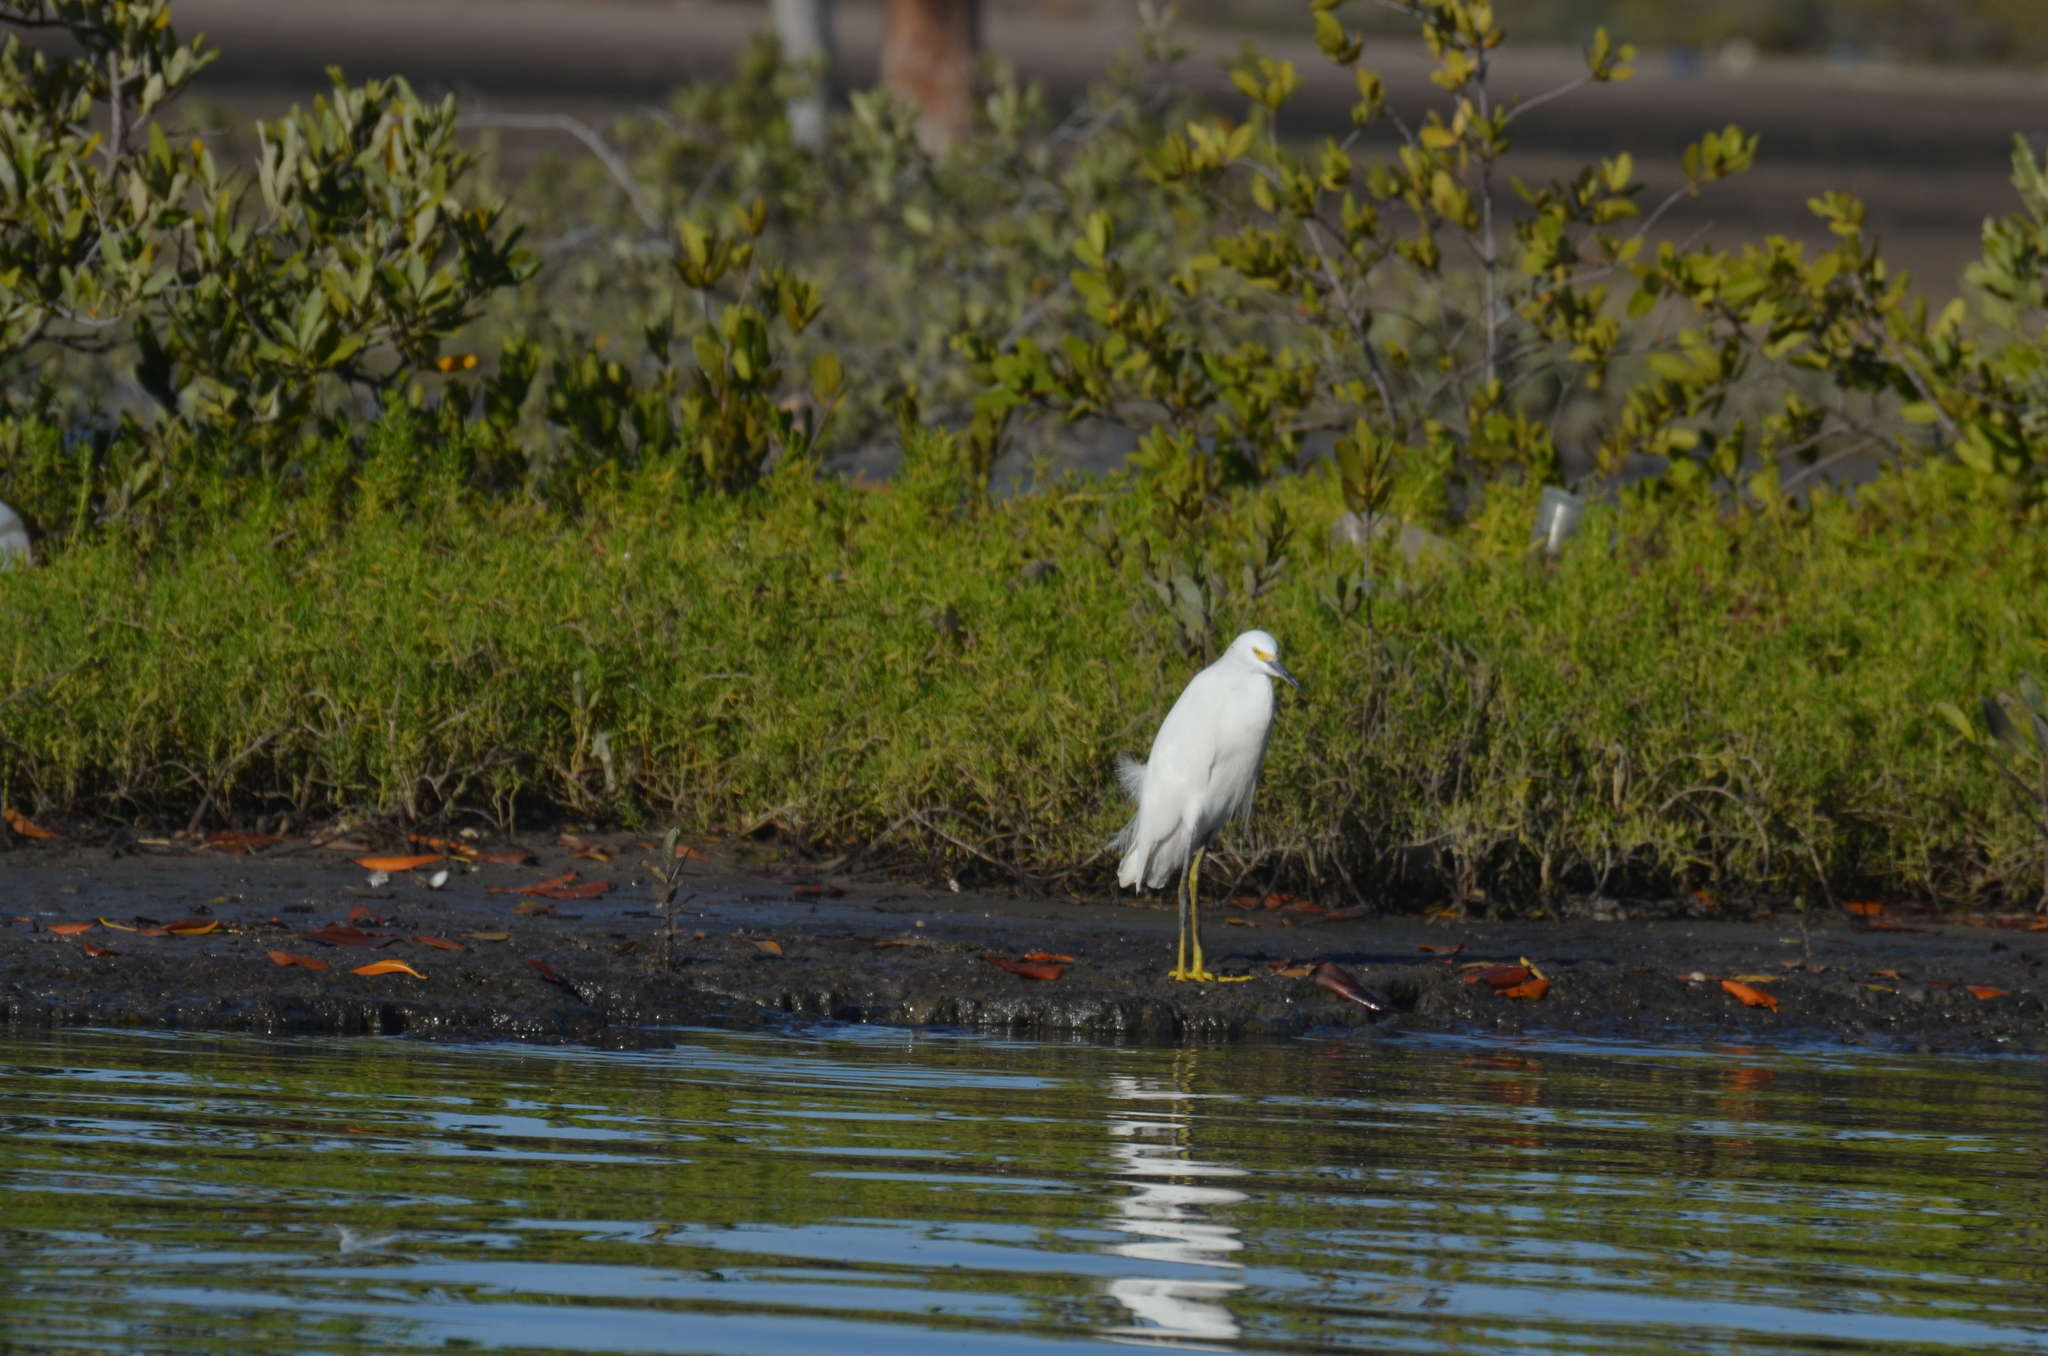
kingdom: Animalia
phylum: Chordata
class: Aves
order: Pelecaniformes
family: Ardeidae
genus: Egretta
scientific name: Egretta thula
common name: Snowy egret
